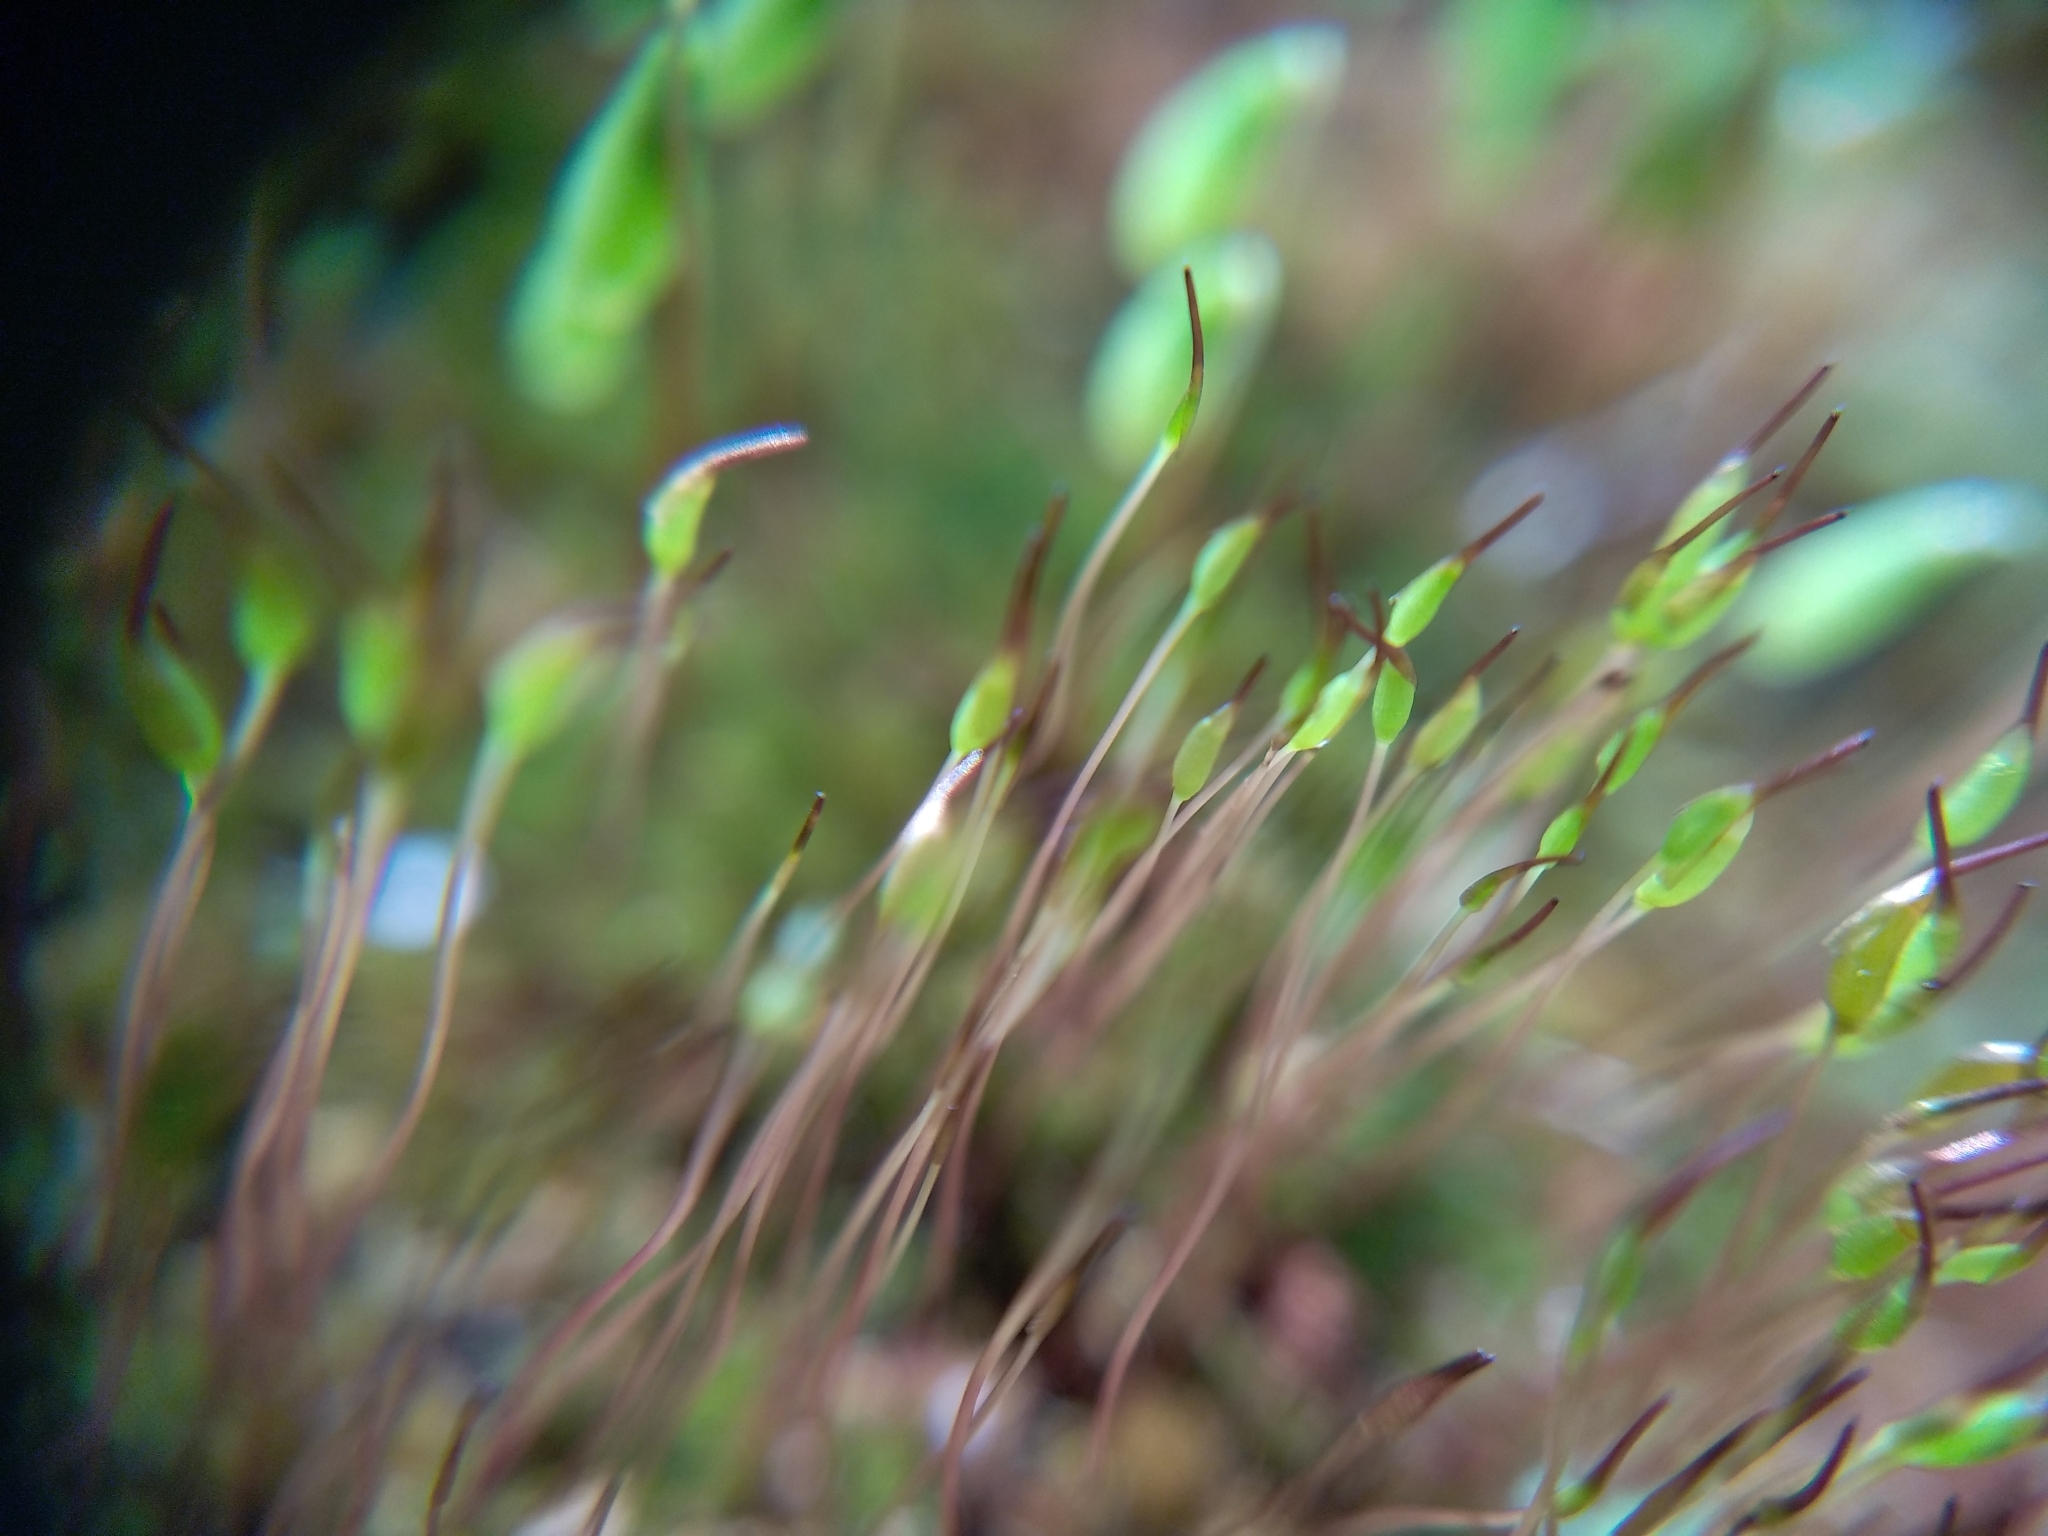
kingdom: Plantae
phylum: Bryophyta
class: Bryopsida
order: Dicranales
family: Ditrichaceae
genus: Ceratodon
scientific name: Ceratodon purpureus
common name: Redshank
